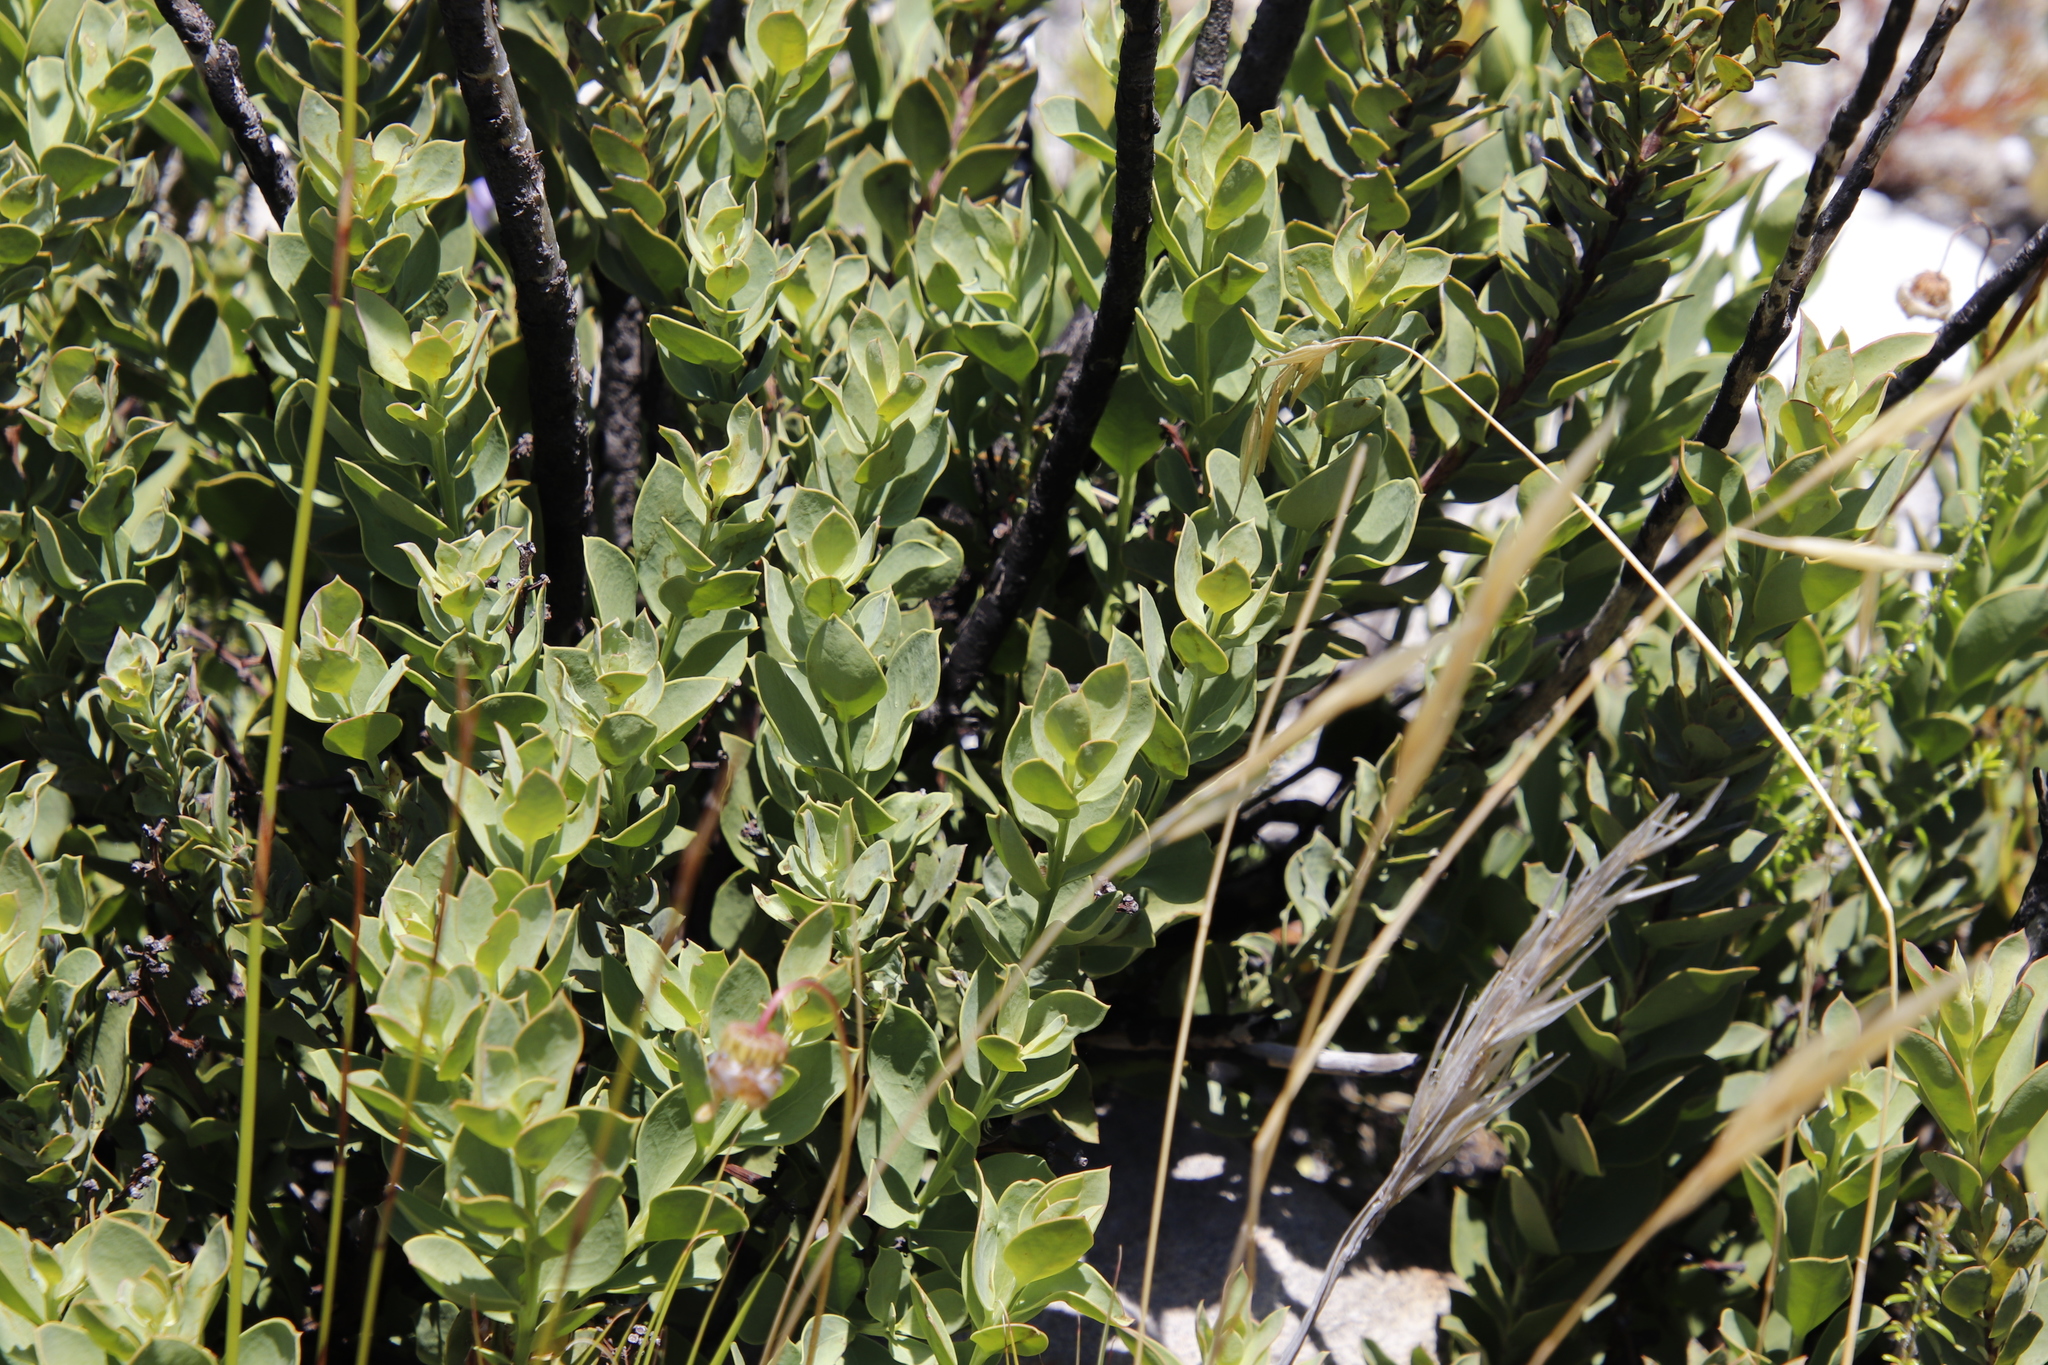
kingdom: Plantae
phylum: Tracheophyta
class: Magnoliopsida
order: Santalales
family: Santalaceae
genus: Osyris
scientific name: Osyris speciosa
